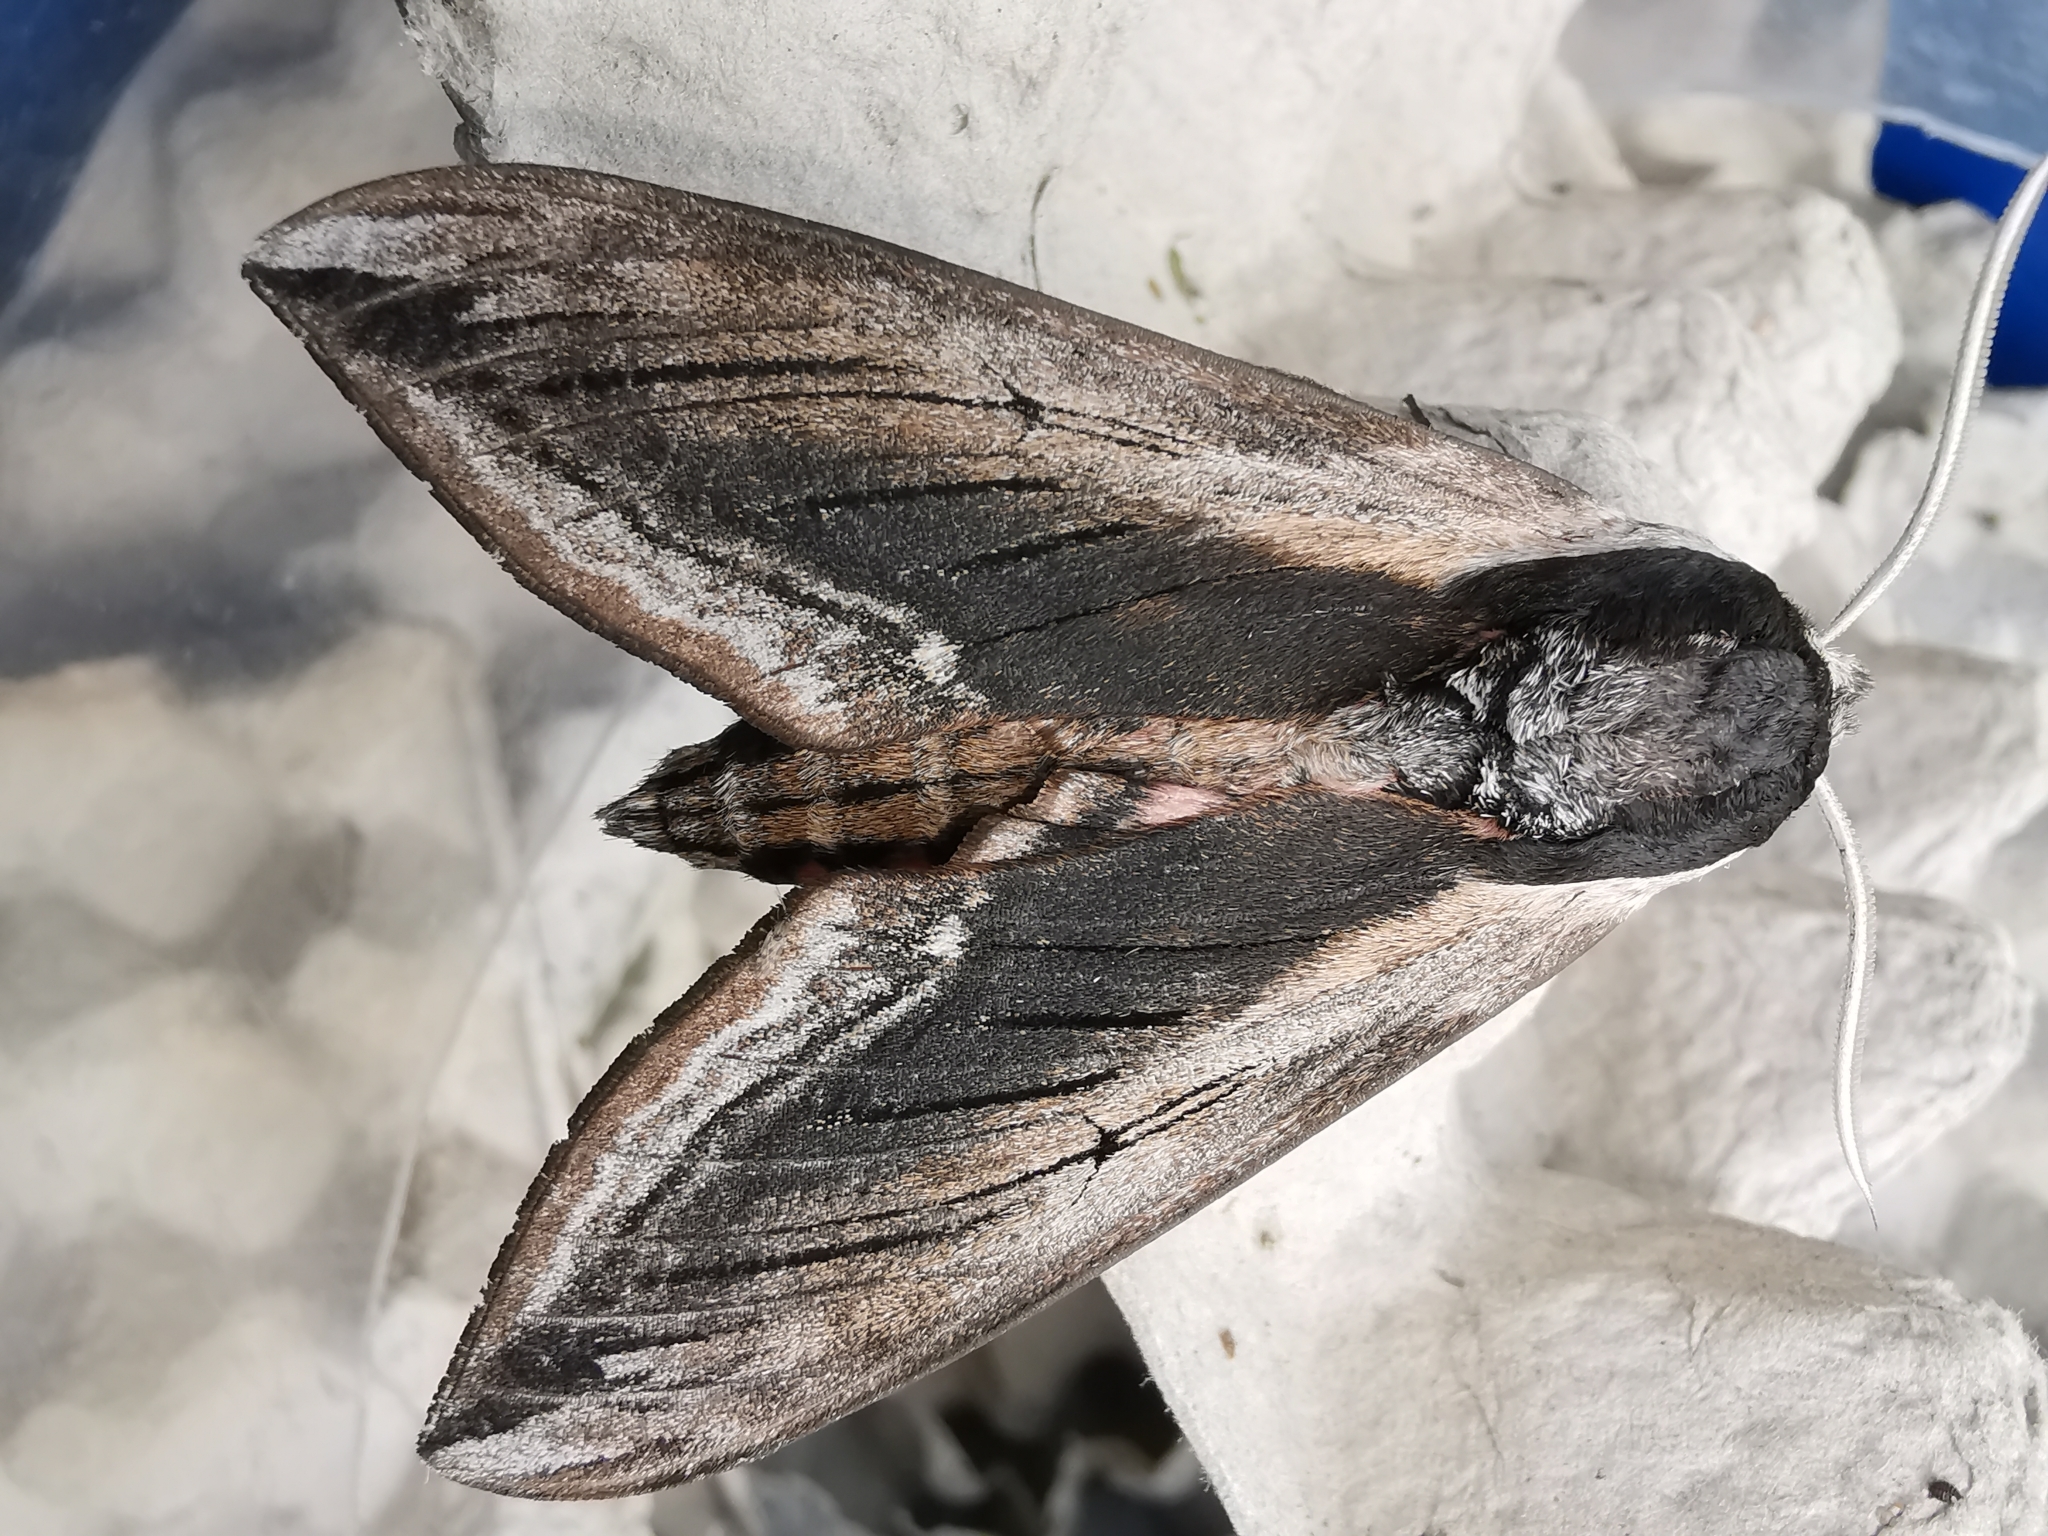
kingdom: Animalia
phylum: Arthropoda
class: Insecta
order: Lepidoptera
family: Sphingidae
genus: Sphinx
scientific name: Sphinx ligustri
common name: Privet hawk-moth
